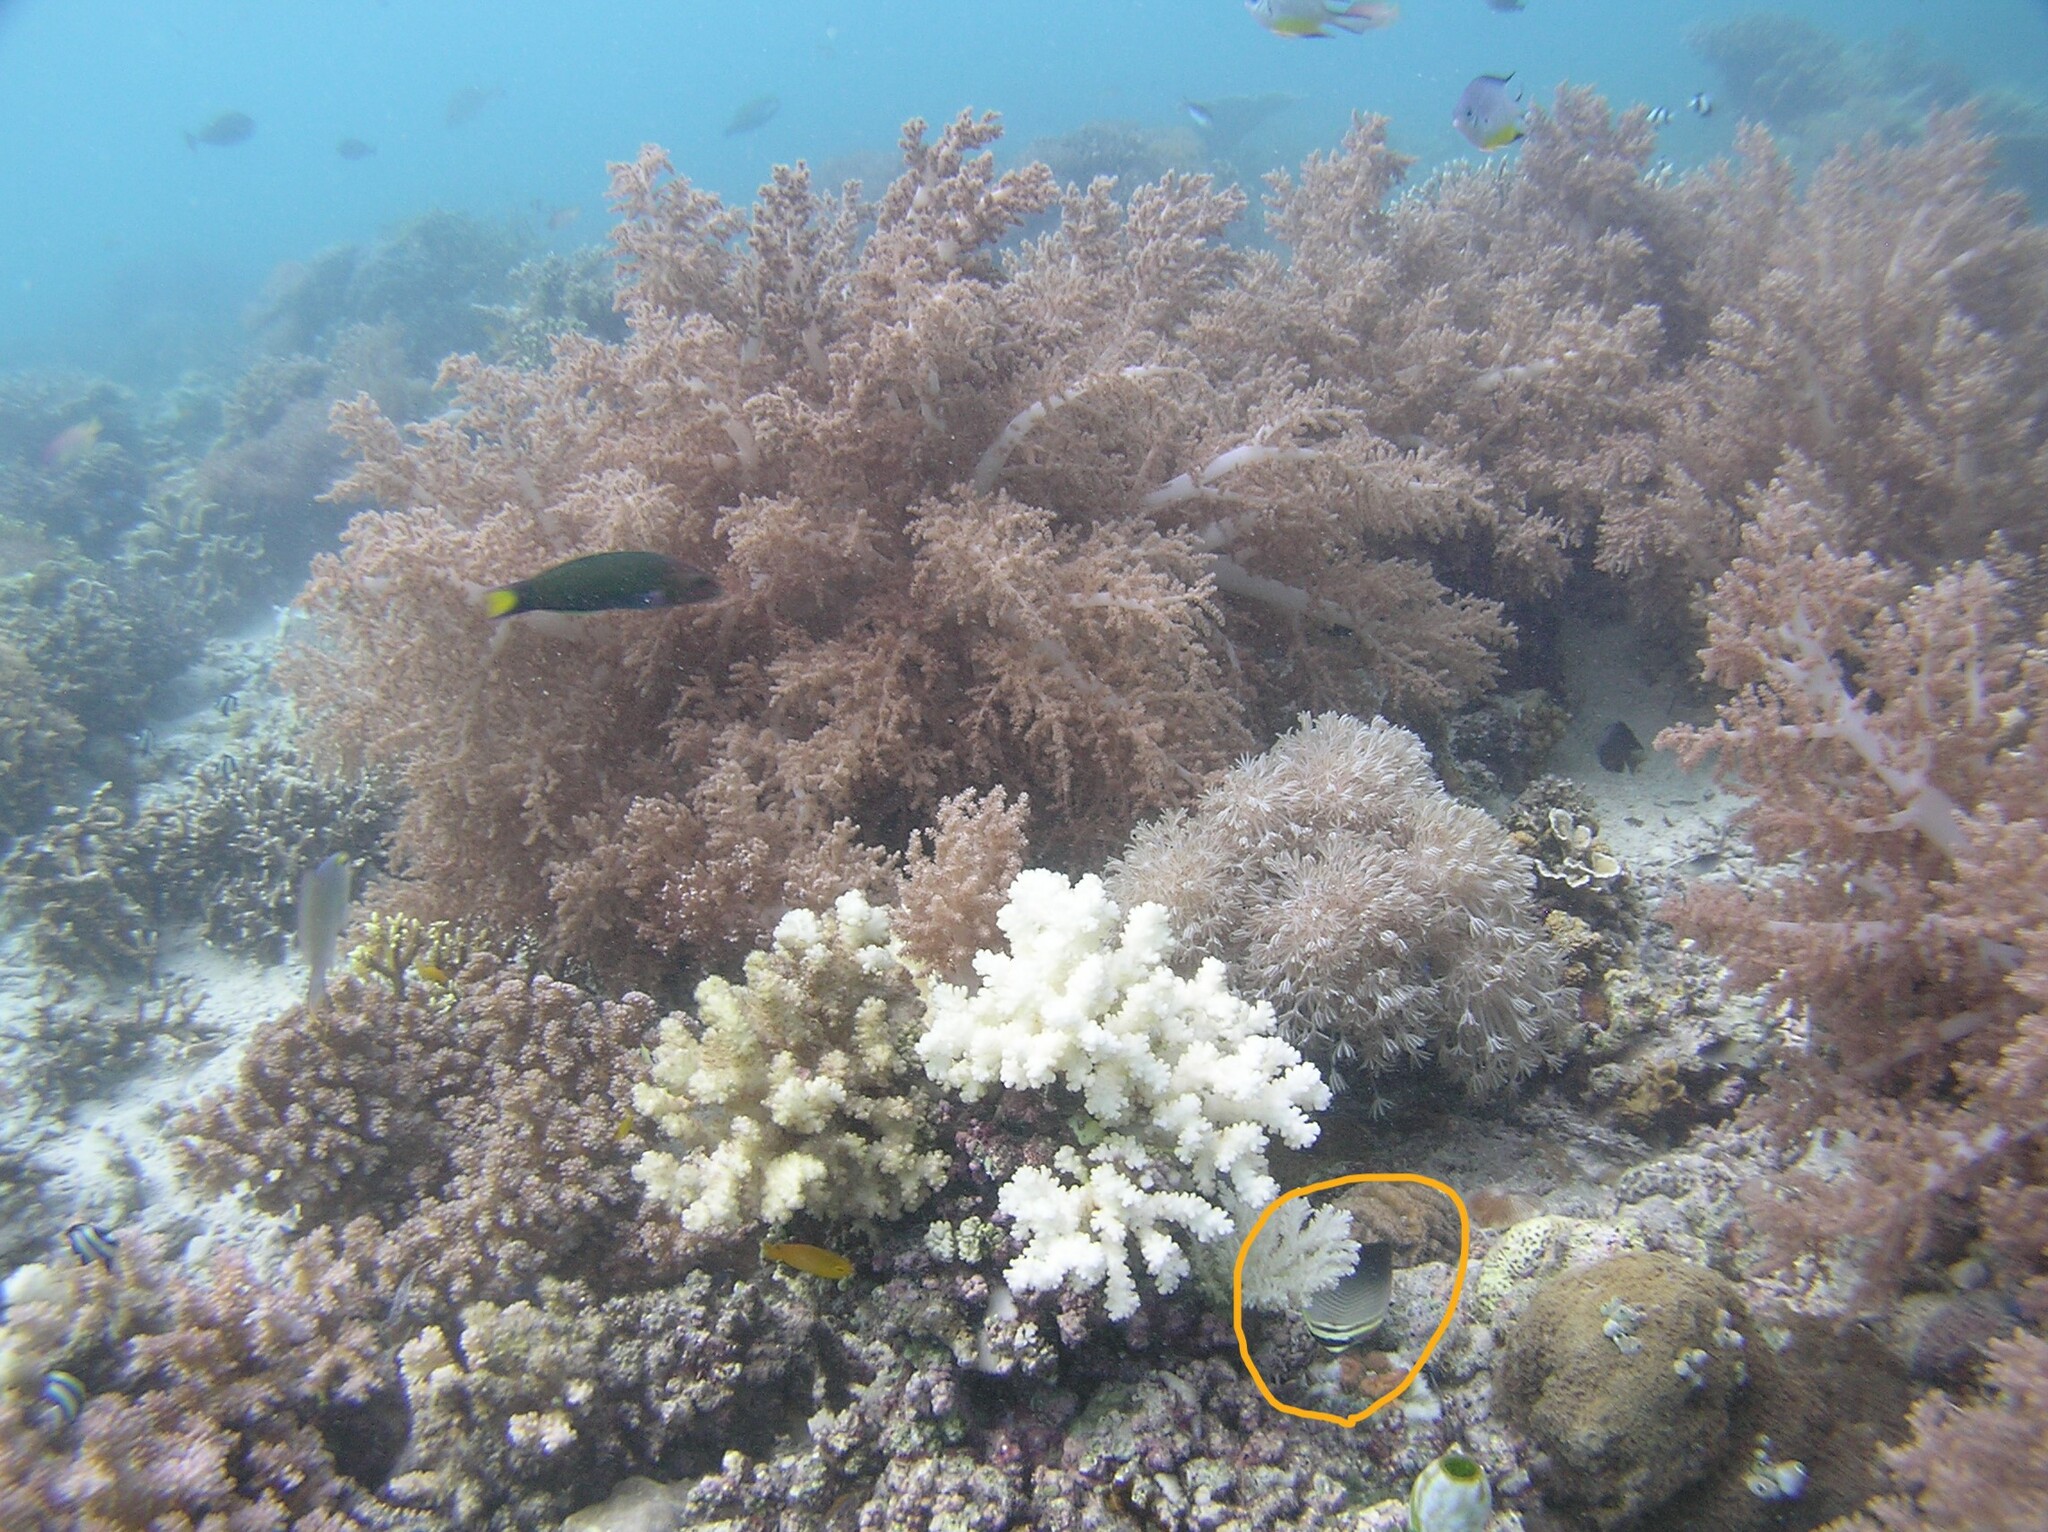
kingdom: Animalia
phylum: Chordata
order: Perciformes
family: Chaetodontidae
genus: Chaetodon
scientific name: Chaetodon baronessa
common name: Triangular butterflyfish
